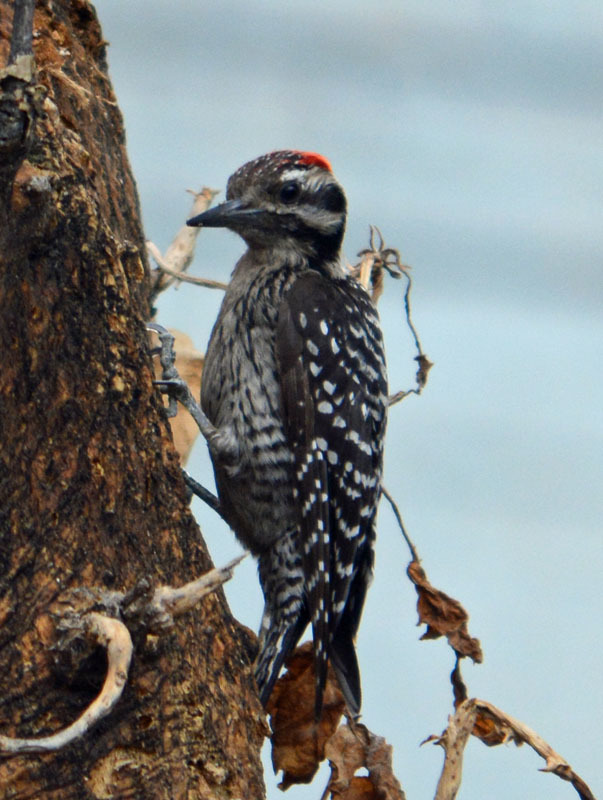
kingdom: Animalia
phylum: Chordata
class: Aves
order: Piciformes
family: Picidae
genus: Dryobates
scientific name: Dryobates scalaris
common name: Ladder-backed woodpecker
